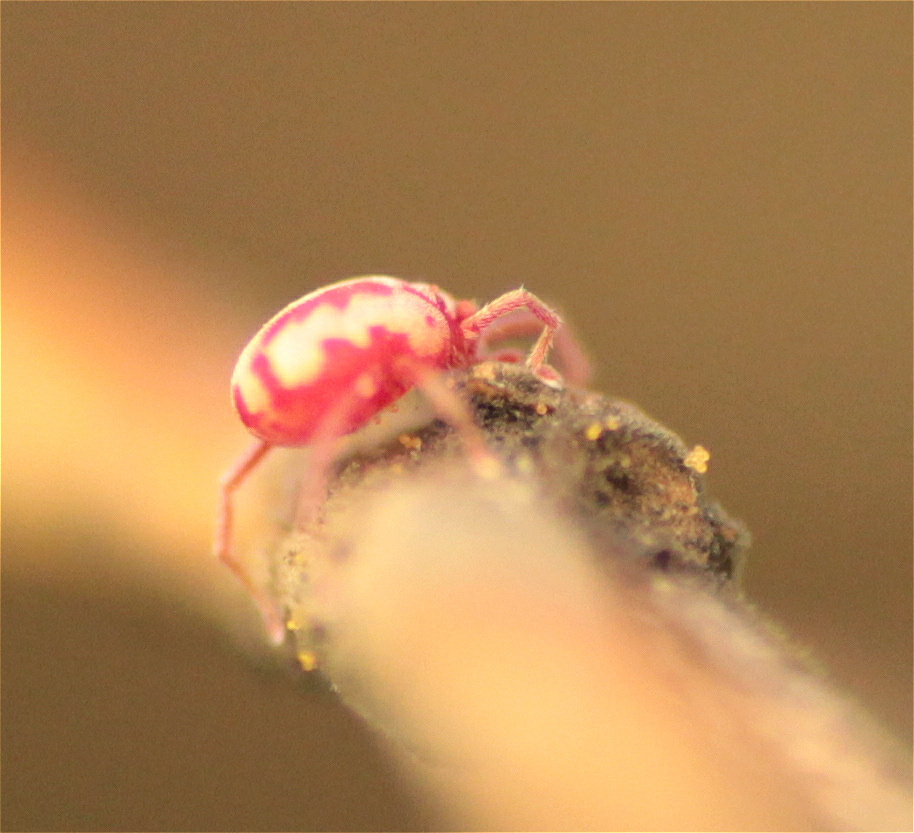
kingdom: Animalia
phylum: Arthropoda
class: Arachnida
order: Trombidiformes
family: Erythraeidae
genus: Balaustium
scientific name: Balaustium leanderi
